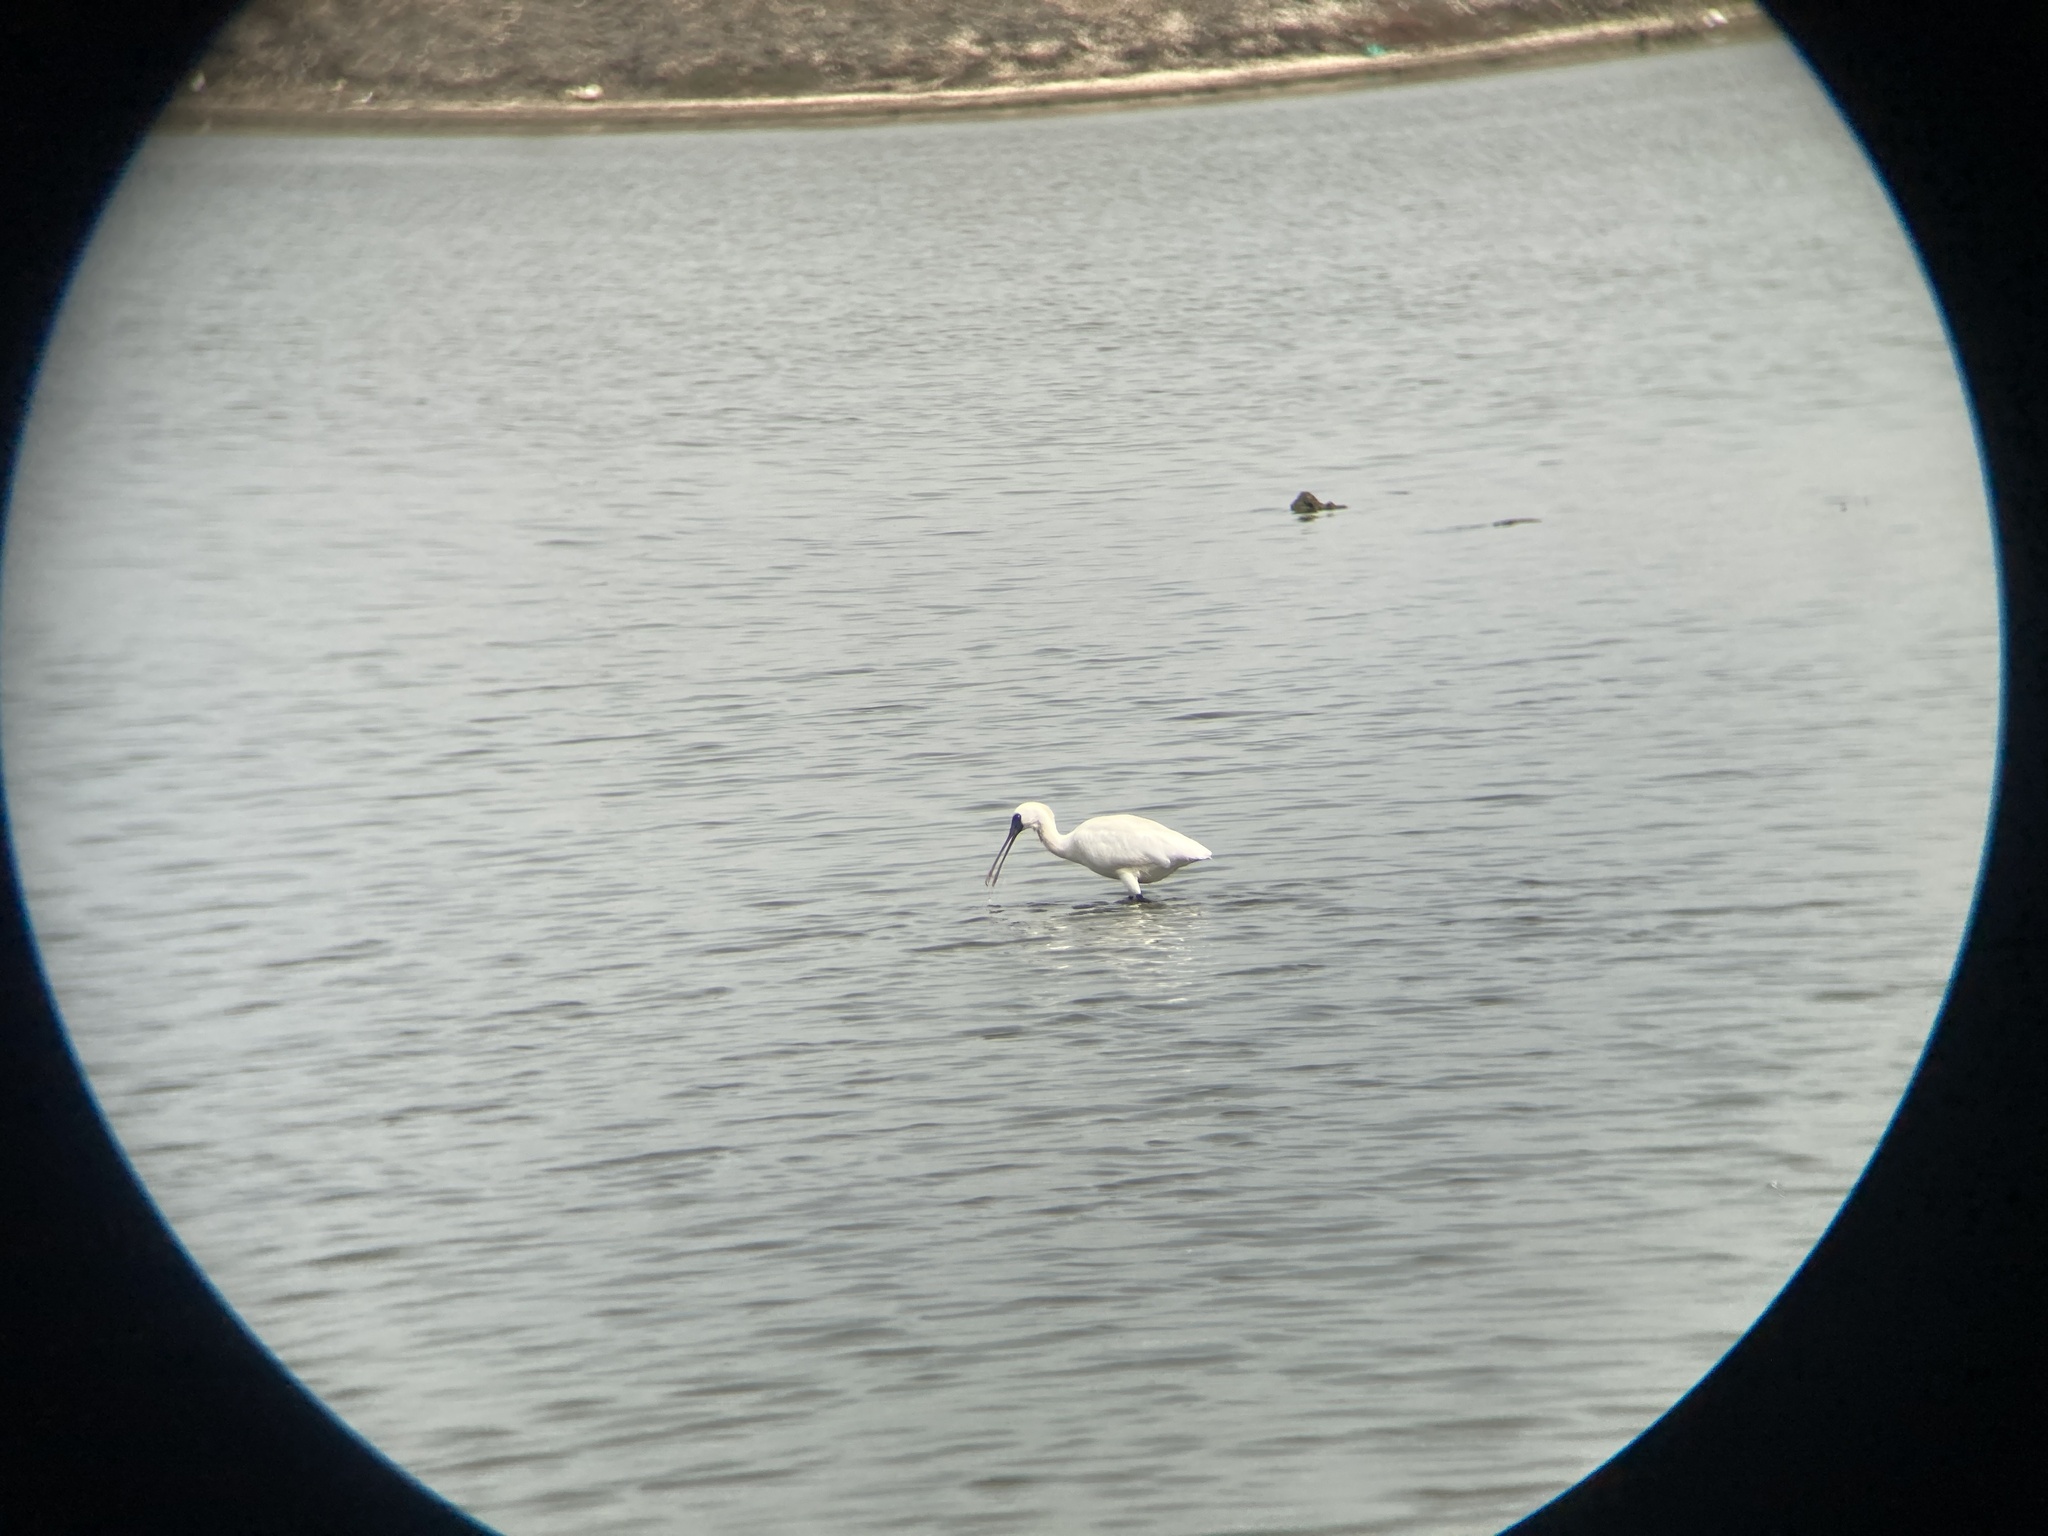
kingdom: Animalia
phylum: Chordata
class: Aves
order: Pelecaniformes
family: Threskiornithidae
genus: Platalea
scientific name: Platalea minor
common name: Black-faced spoonbill
